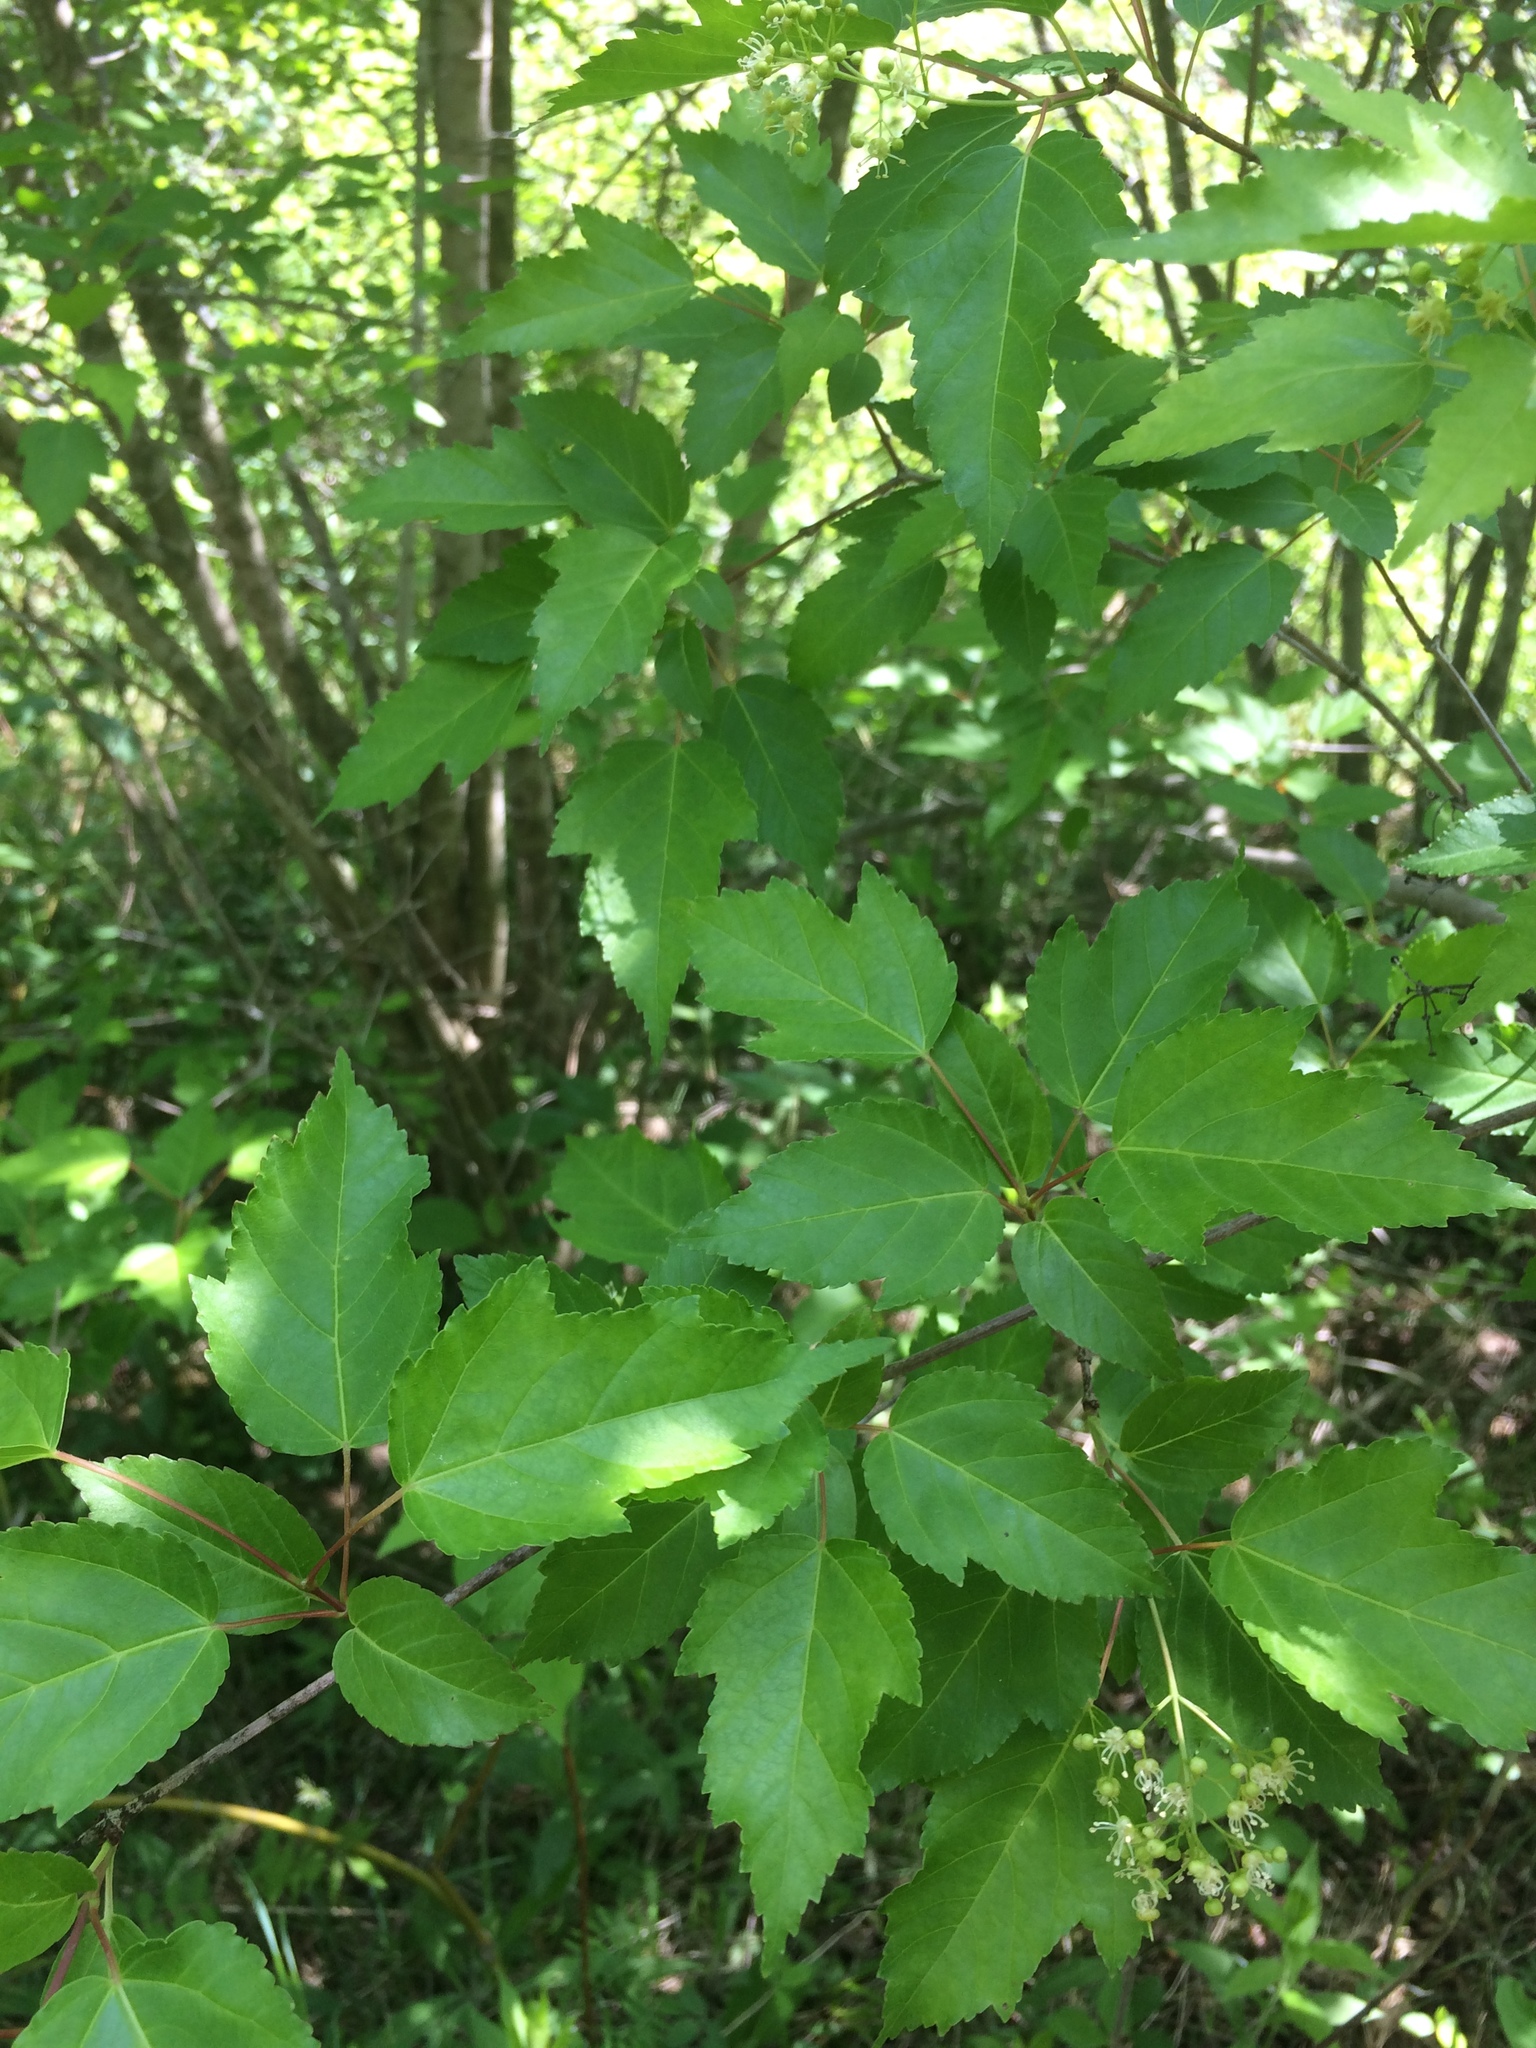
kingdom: Plantae
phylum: Tracheophyta
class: Magnoliopsida
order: Sapindales
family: Sapindaceae
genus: Acer
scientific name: Acer tataricum
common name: Tartar maple
